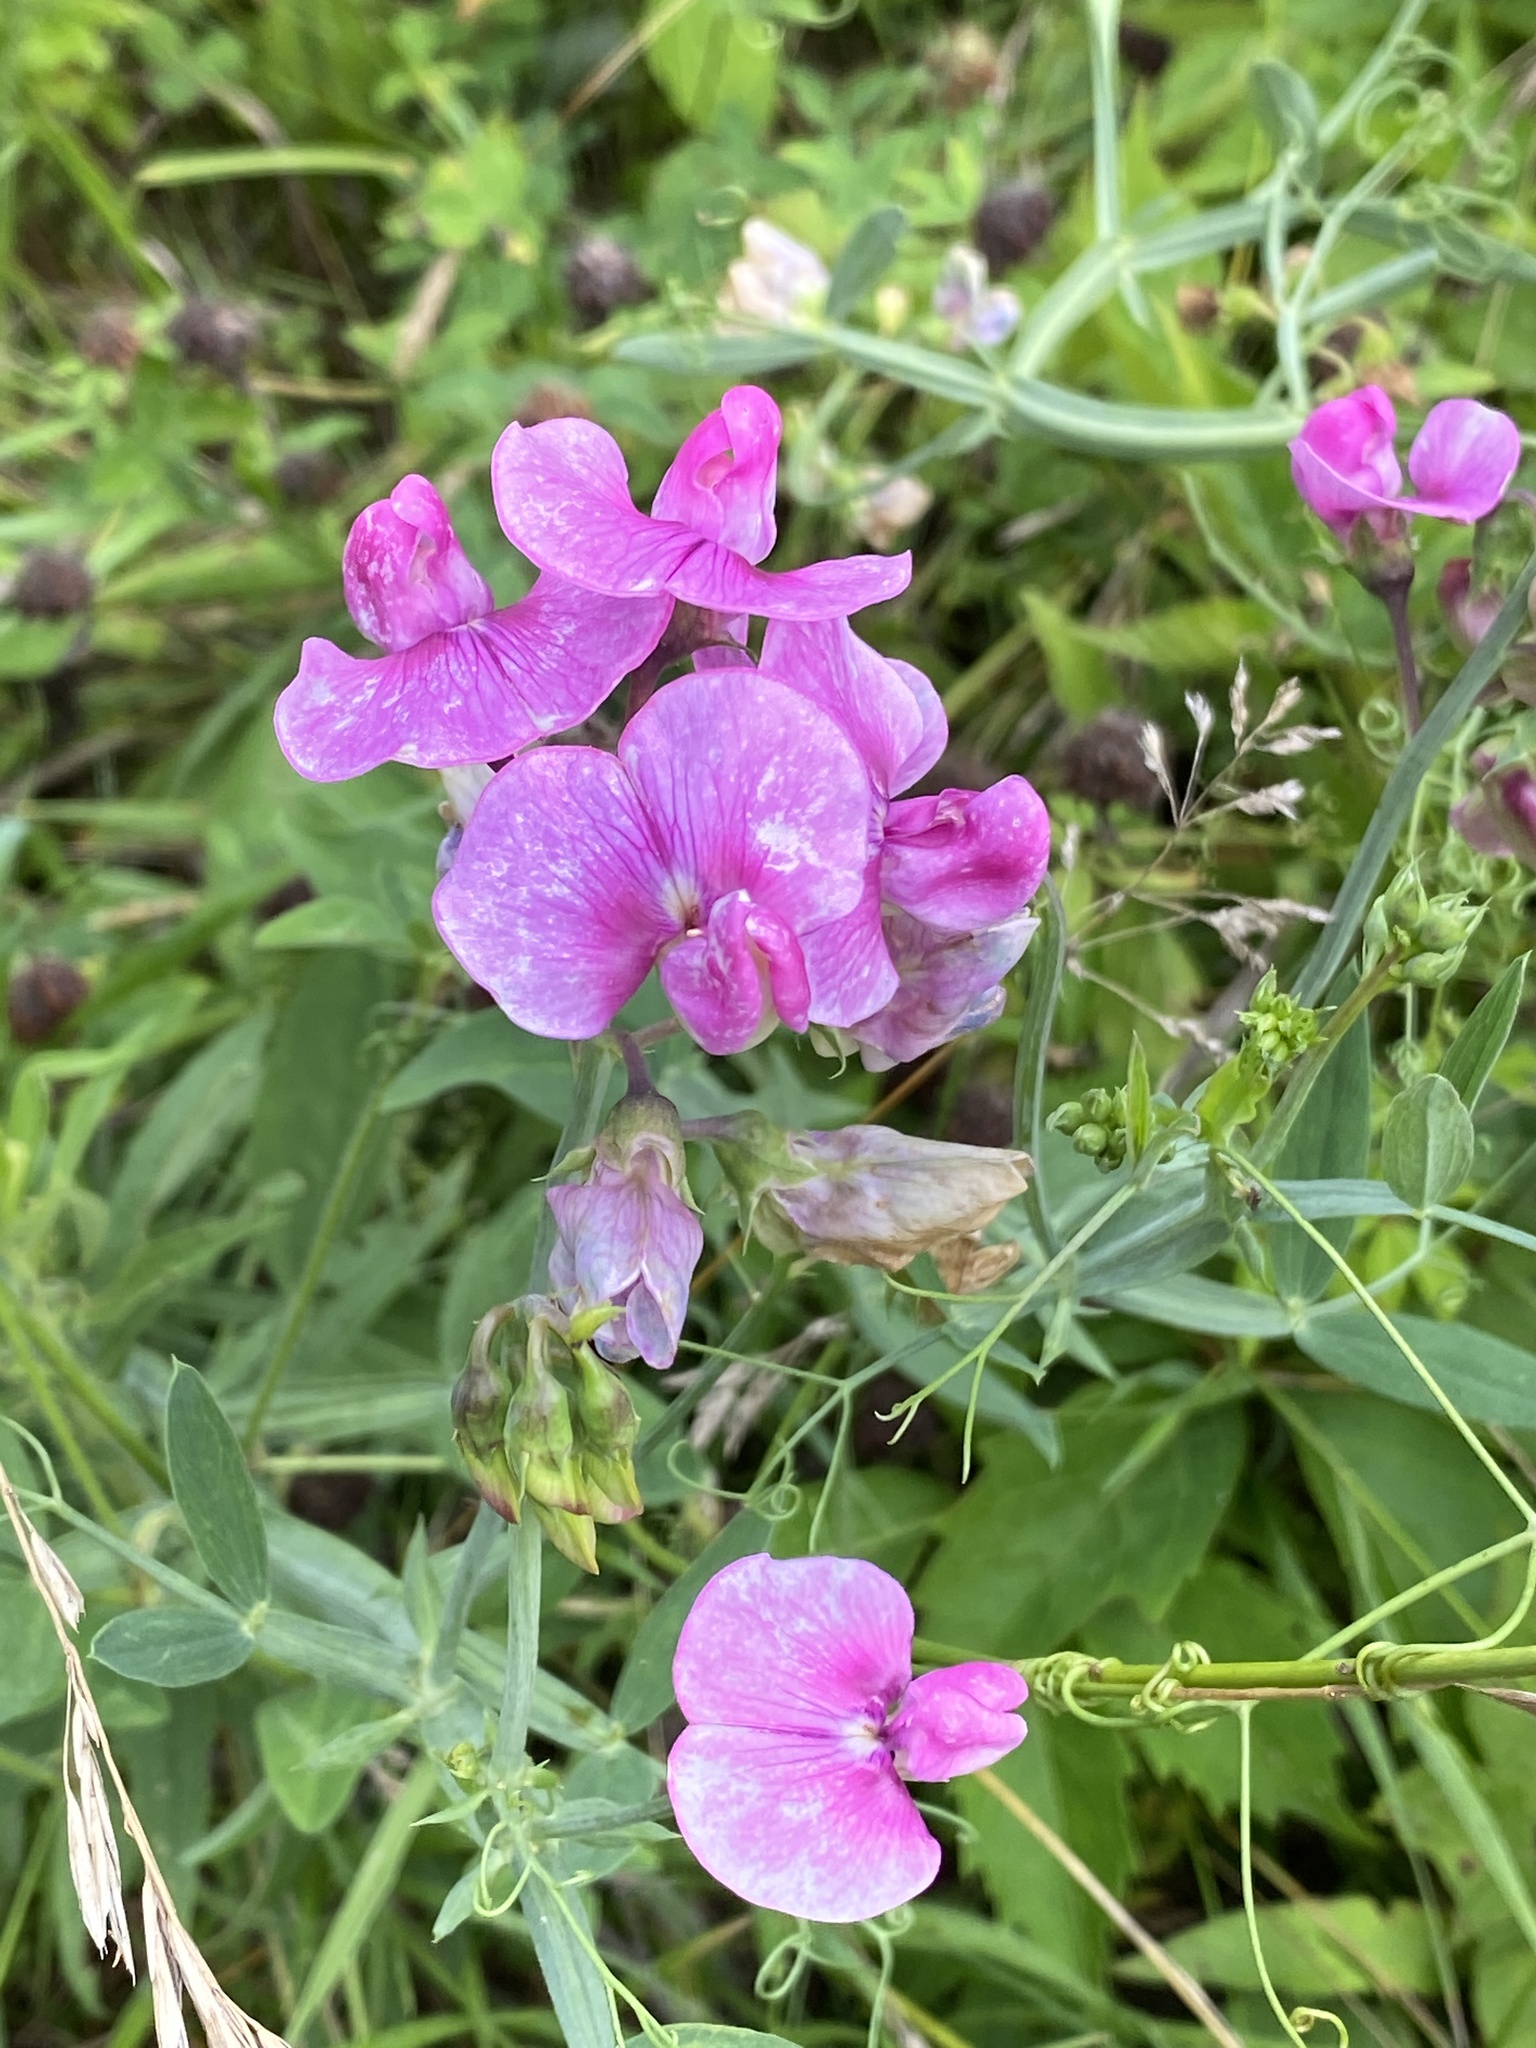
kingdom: Plantae
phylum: Tracheophyta
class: Magnoliopsida
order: Fabales
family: Fabaceae
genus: Lathyrus
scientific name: Lathyrus latifolius
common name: Perennial pea
